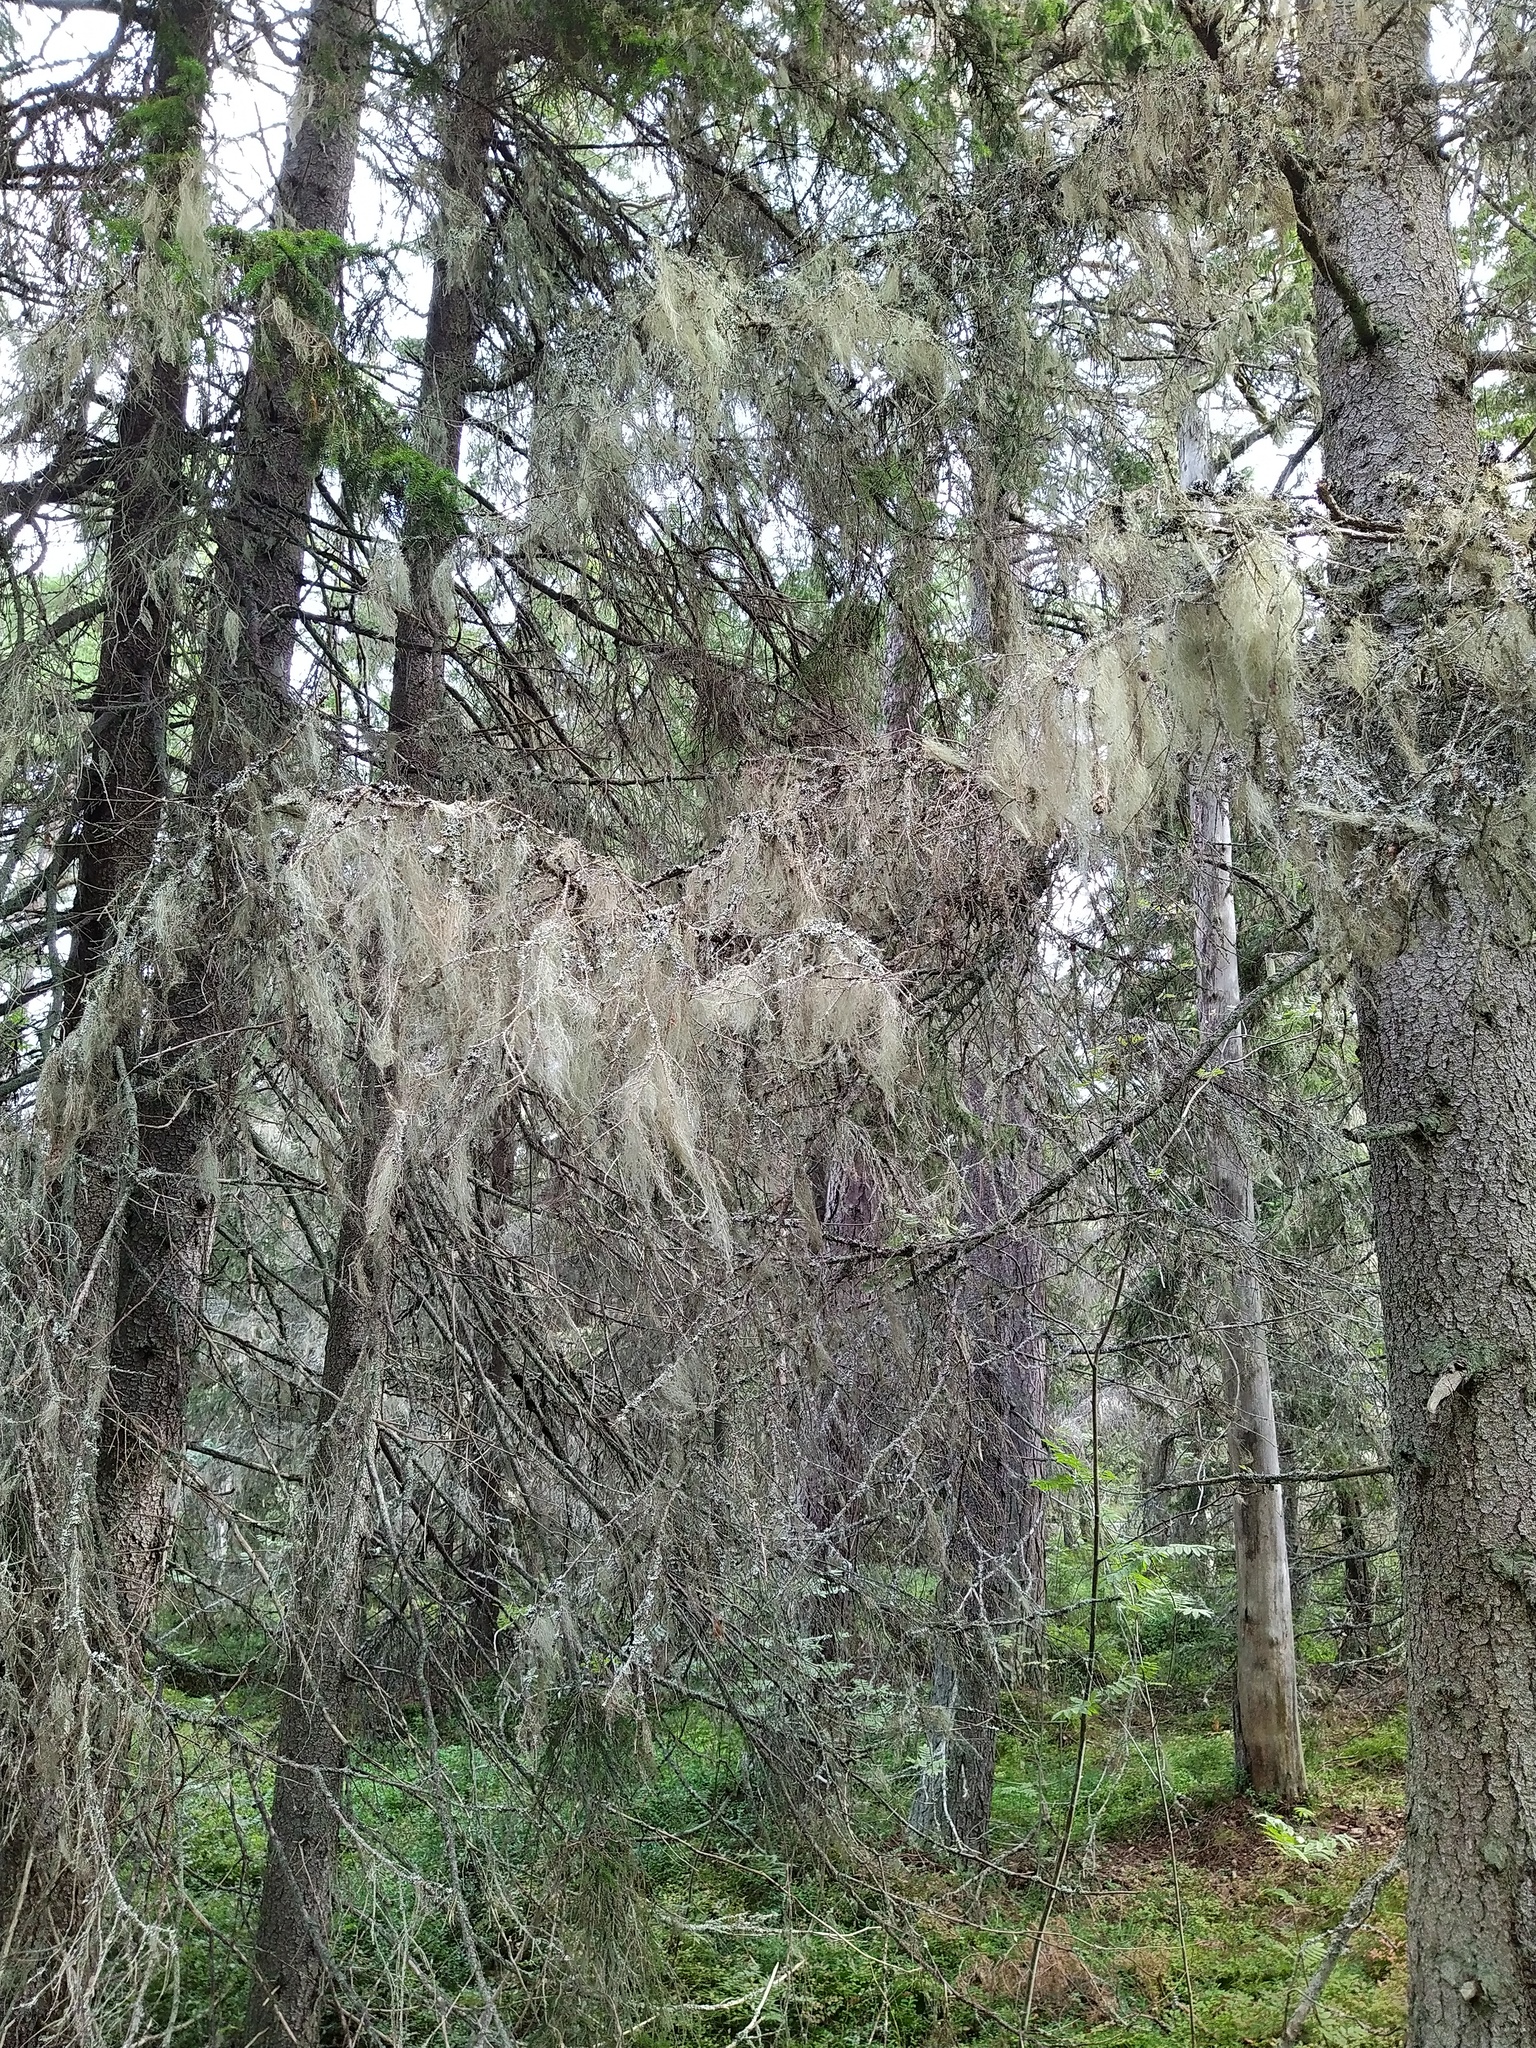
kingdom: Fungi
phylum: Ascomycota
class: Lecanoromycetes
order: Lecanorales
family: Parmeliaceae
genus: Bryoria
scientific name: Bryoria fuscescens
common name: Pale-footed horsehair lichen
